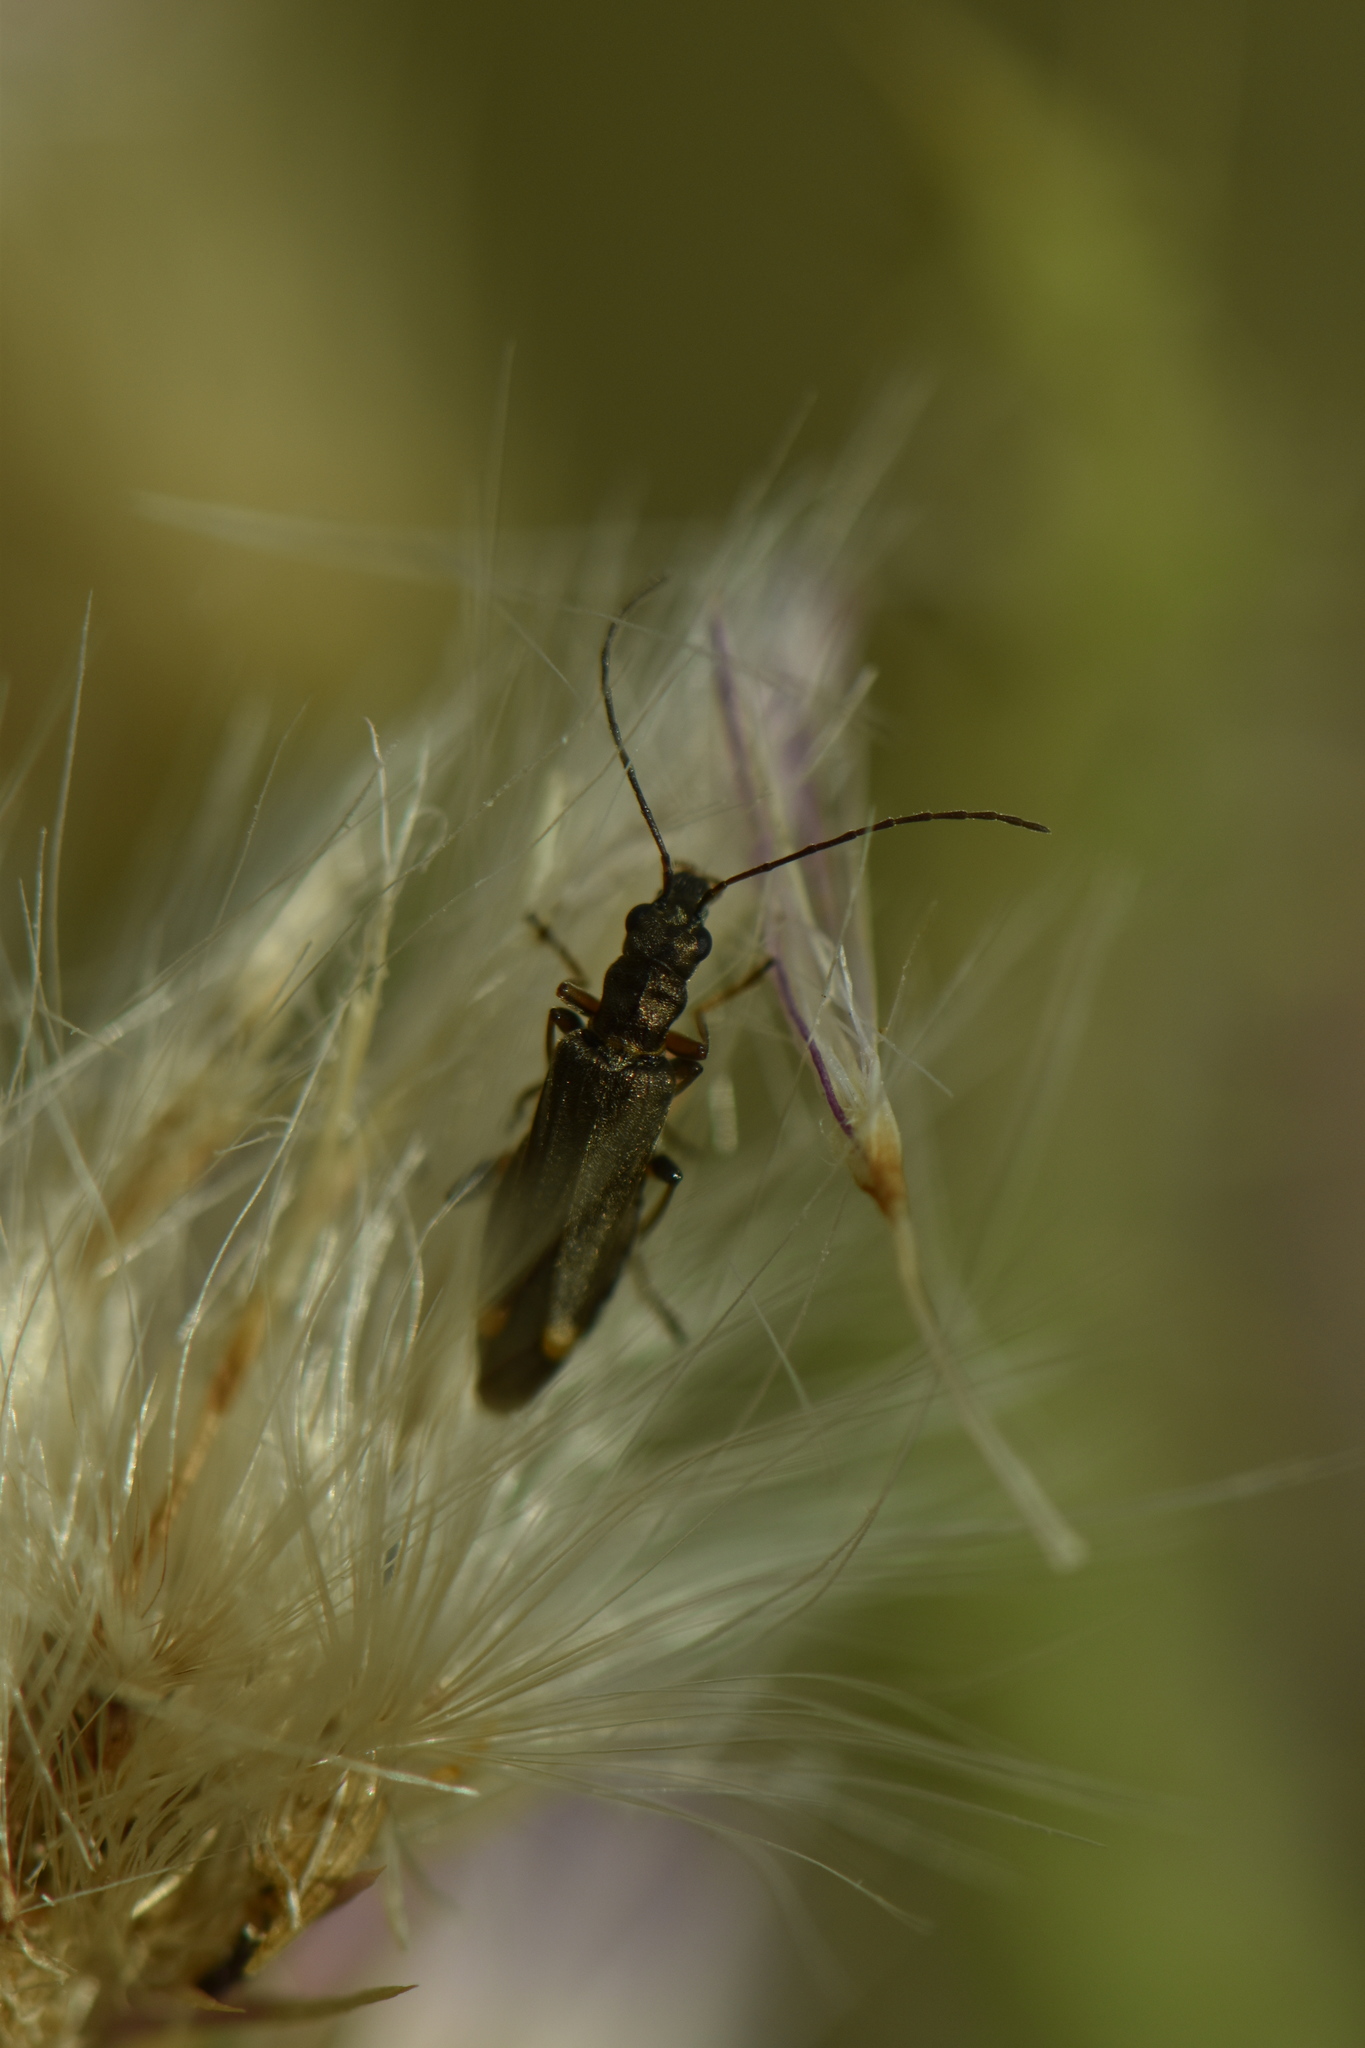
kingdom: Animalia
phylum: Arthropoda
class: Insecta
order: Coleoptera
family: Oedemeridae
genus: Oedemera
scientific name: Oedemera barbara
